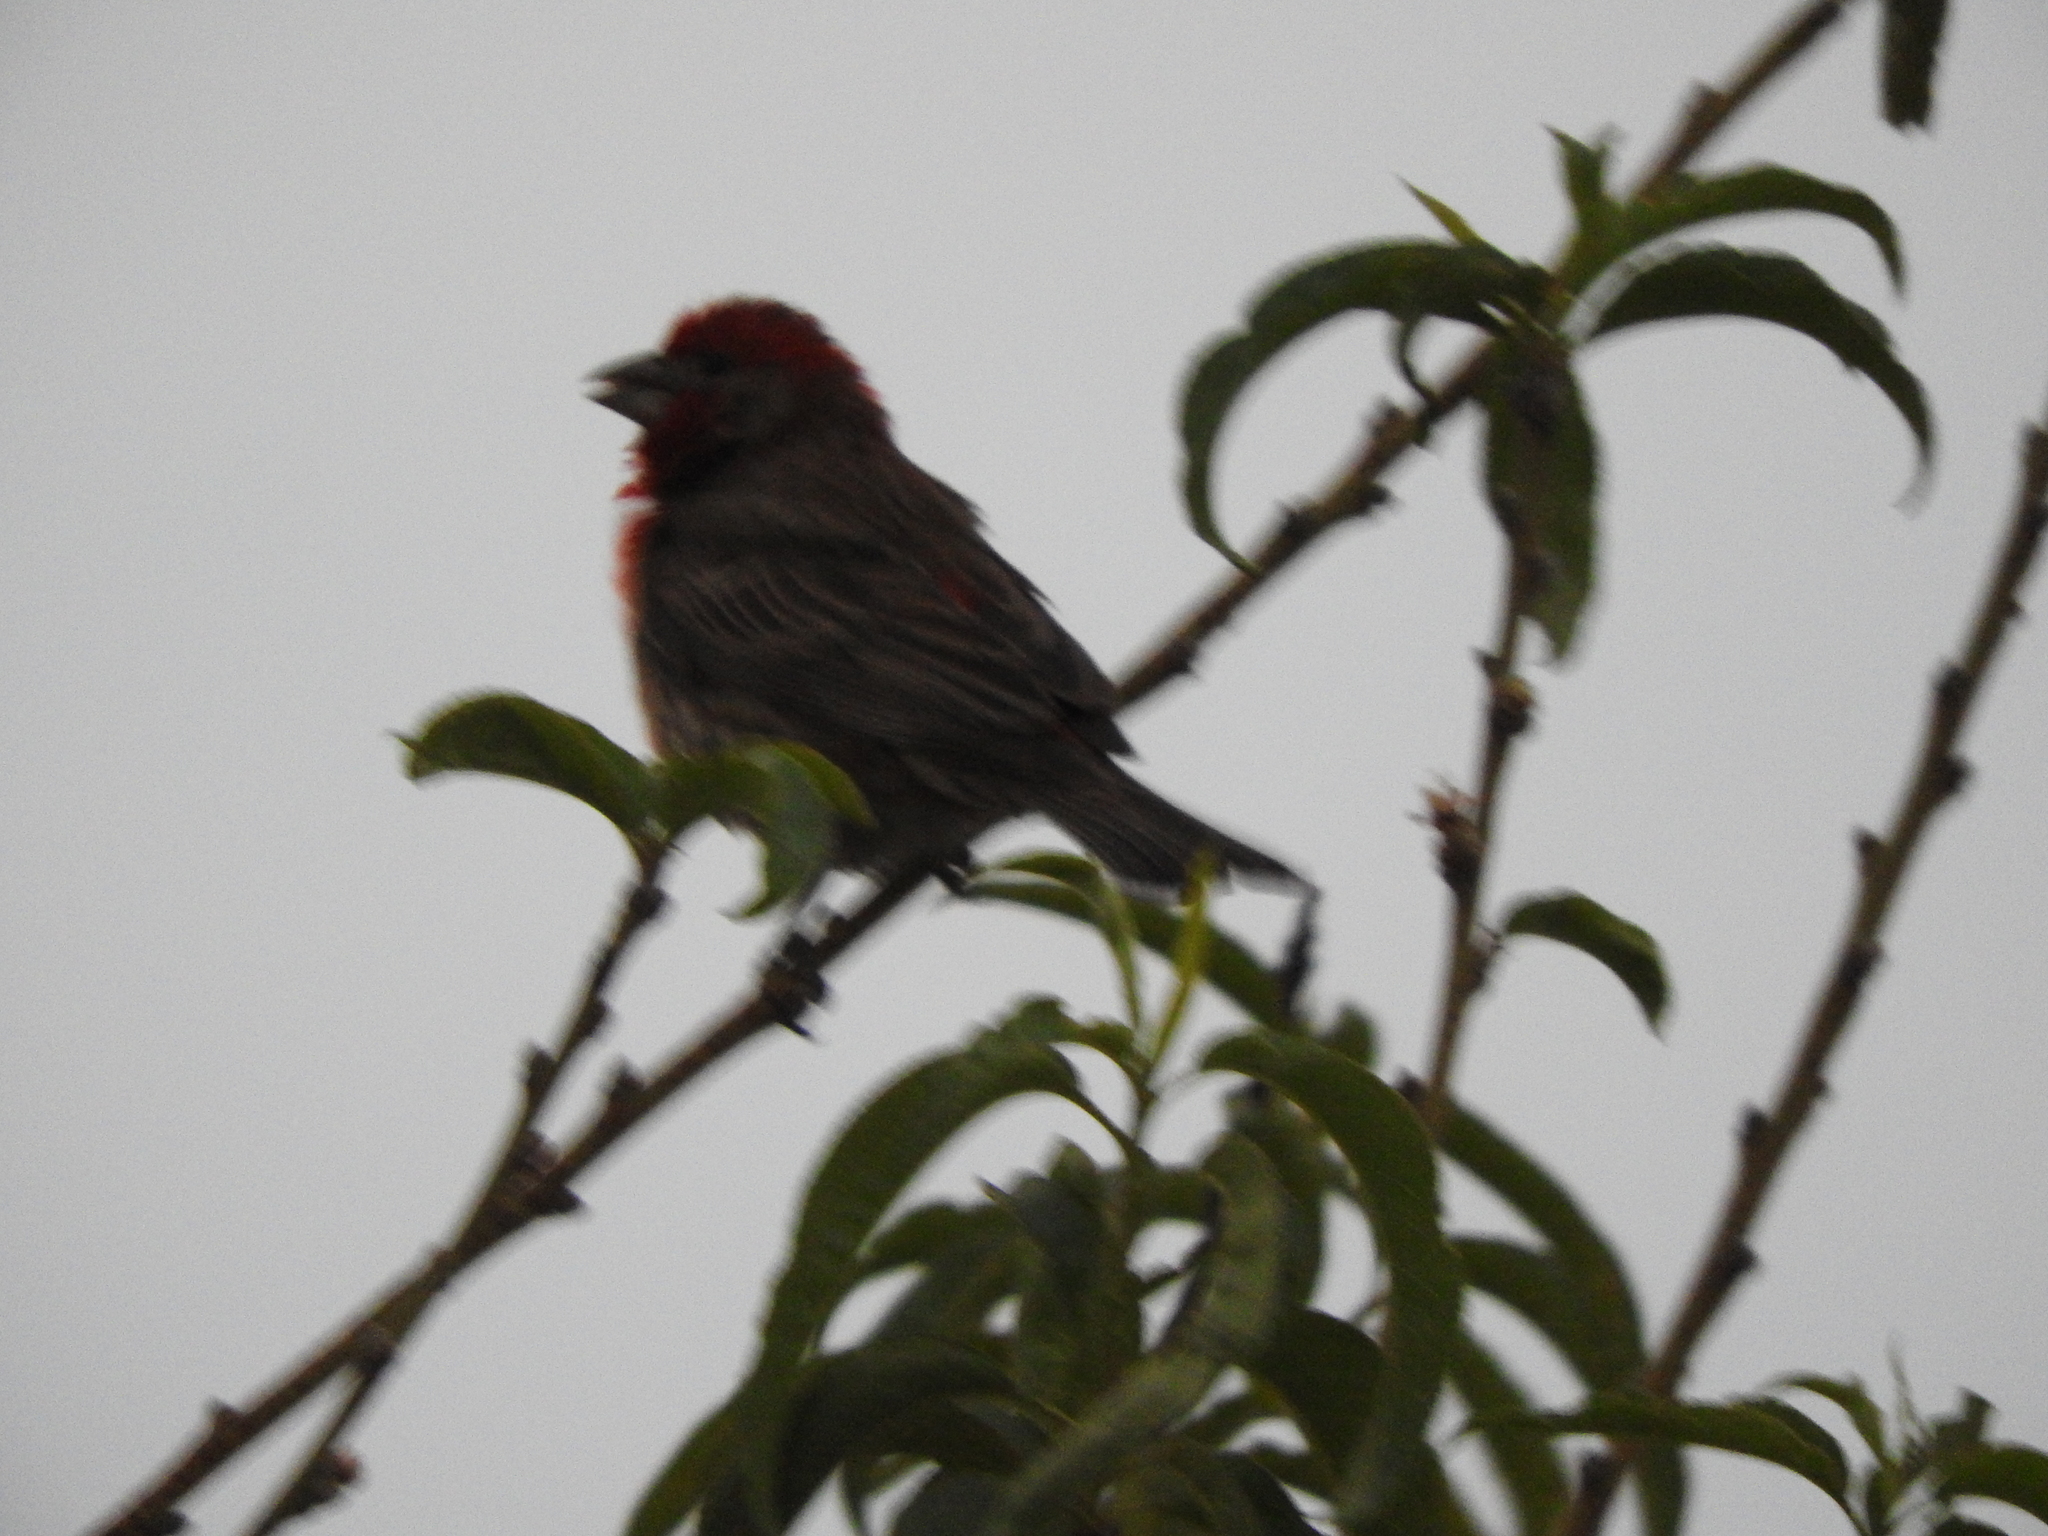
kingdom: Animalia
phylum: Chordata
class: Aves
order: Passeriformes
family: Fringillidae
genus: Haemorhous
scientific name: Haemorhous mexicanus
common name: House finch
